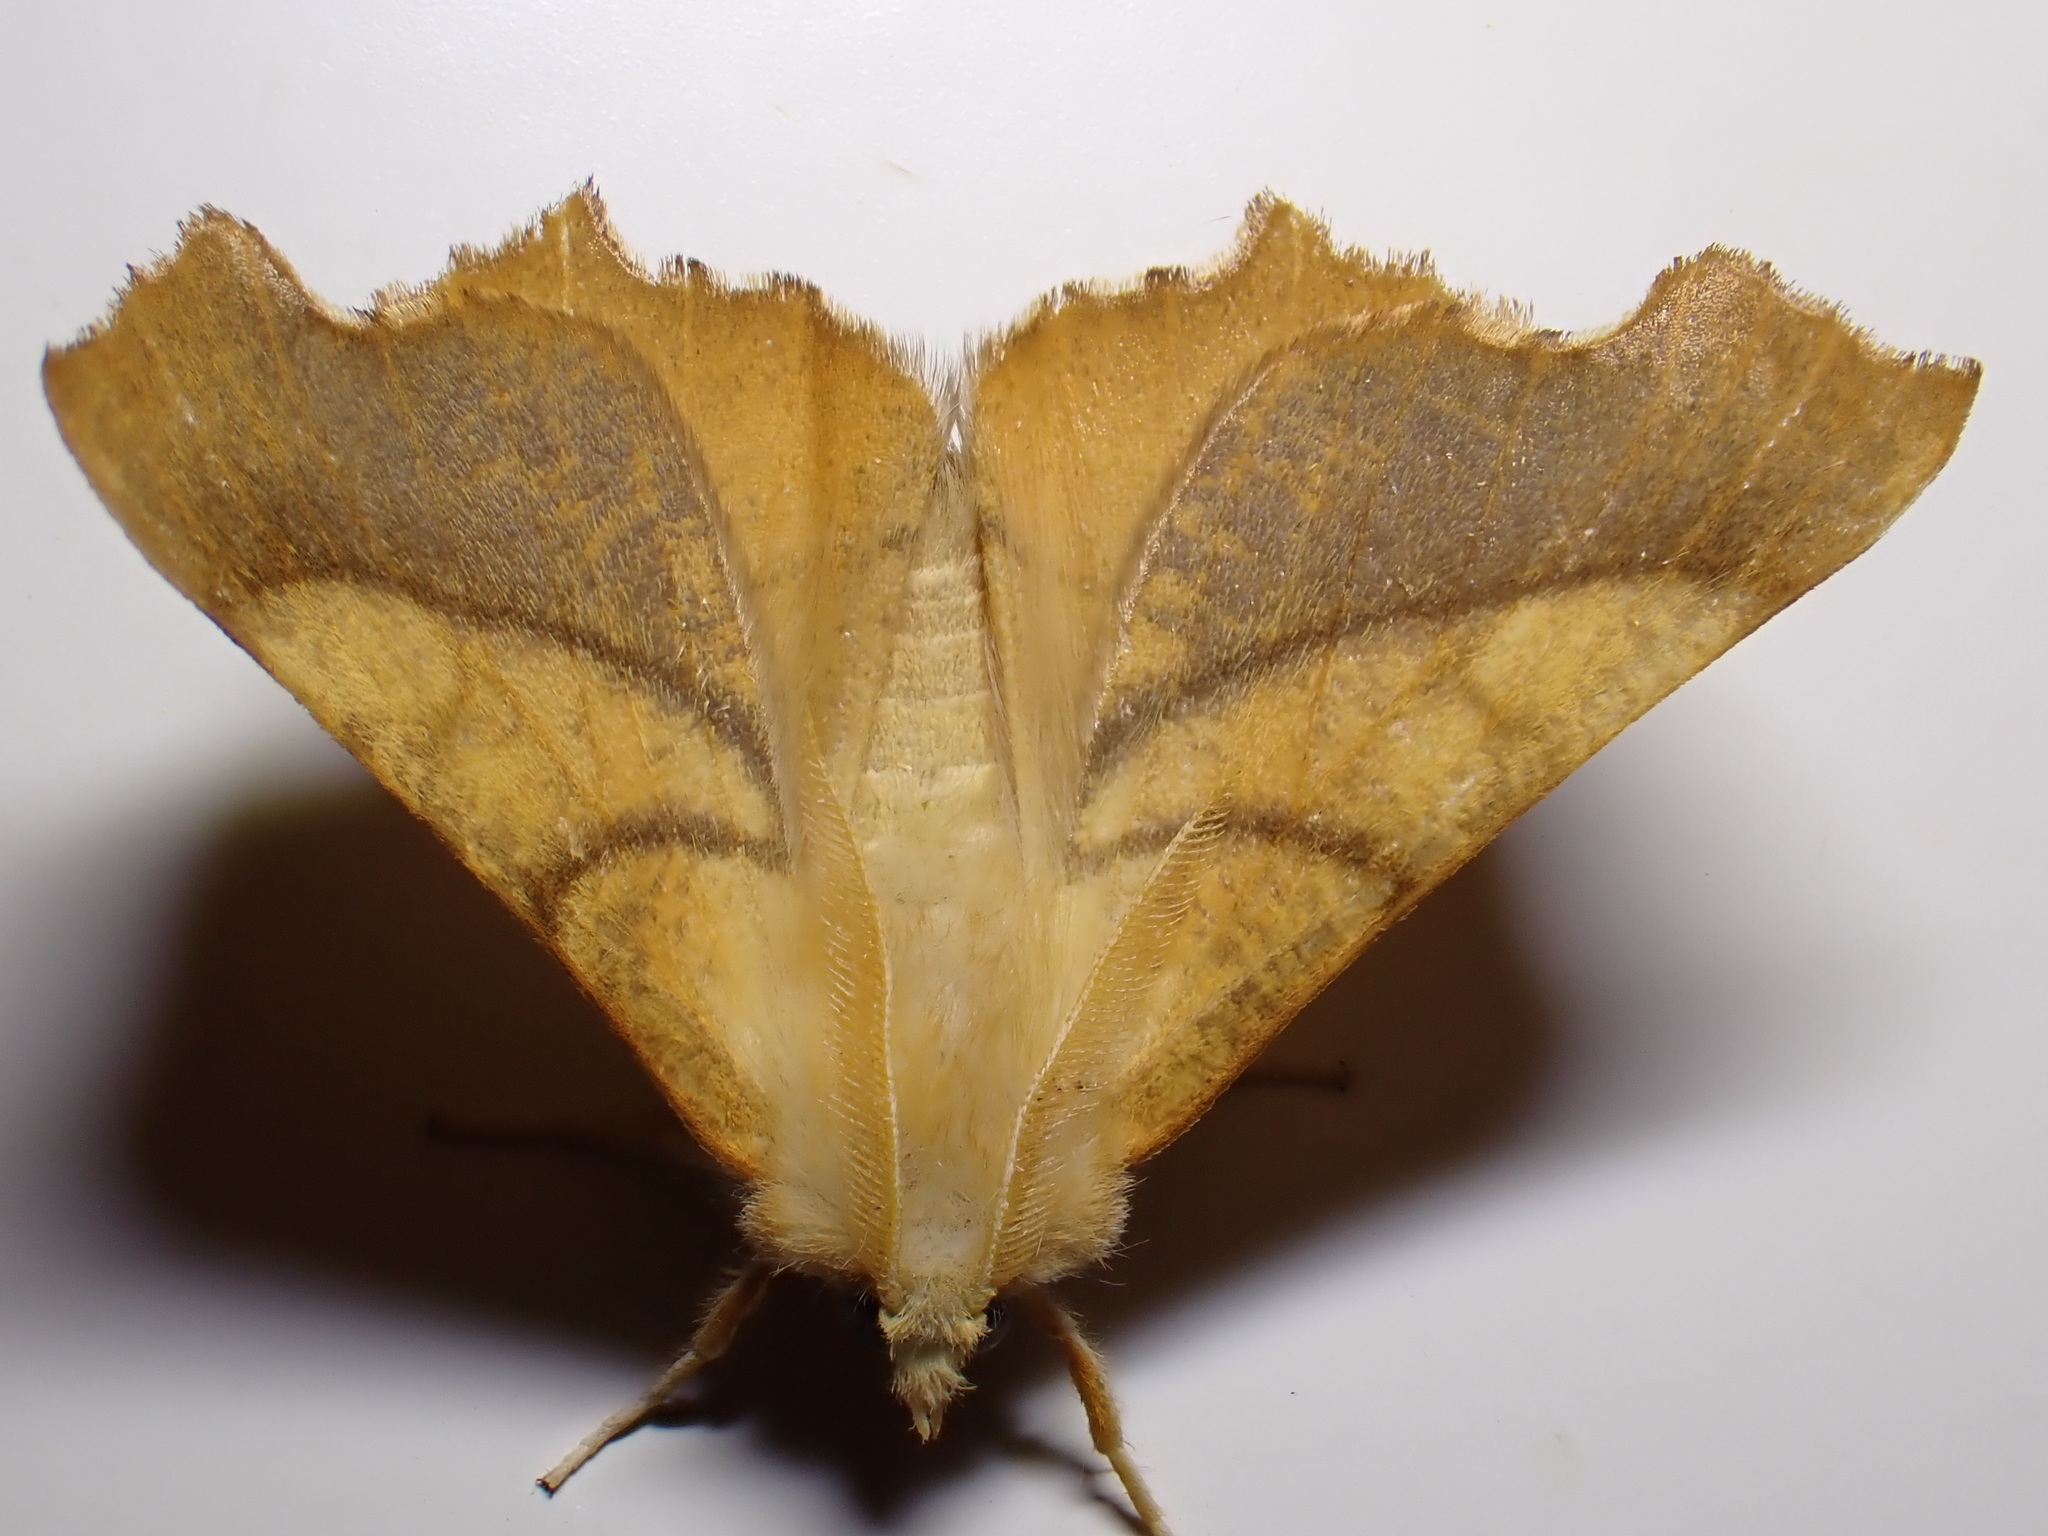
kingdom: Animalia
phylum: Arthropoda
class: Insecta
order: Lepidoptera
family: Geometridae
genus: Ennomos
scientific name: Ennomos fuscantaria
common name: Dusky thorn
